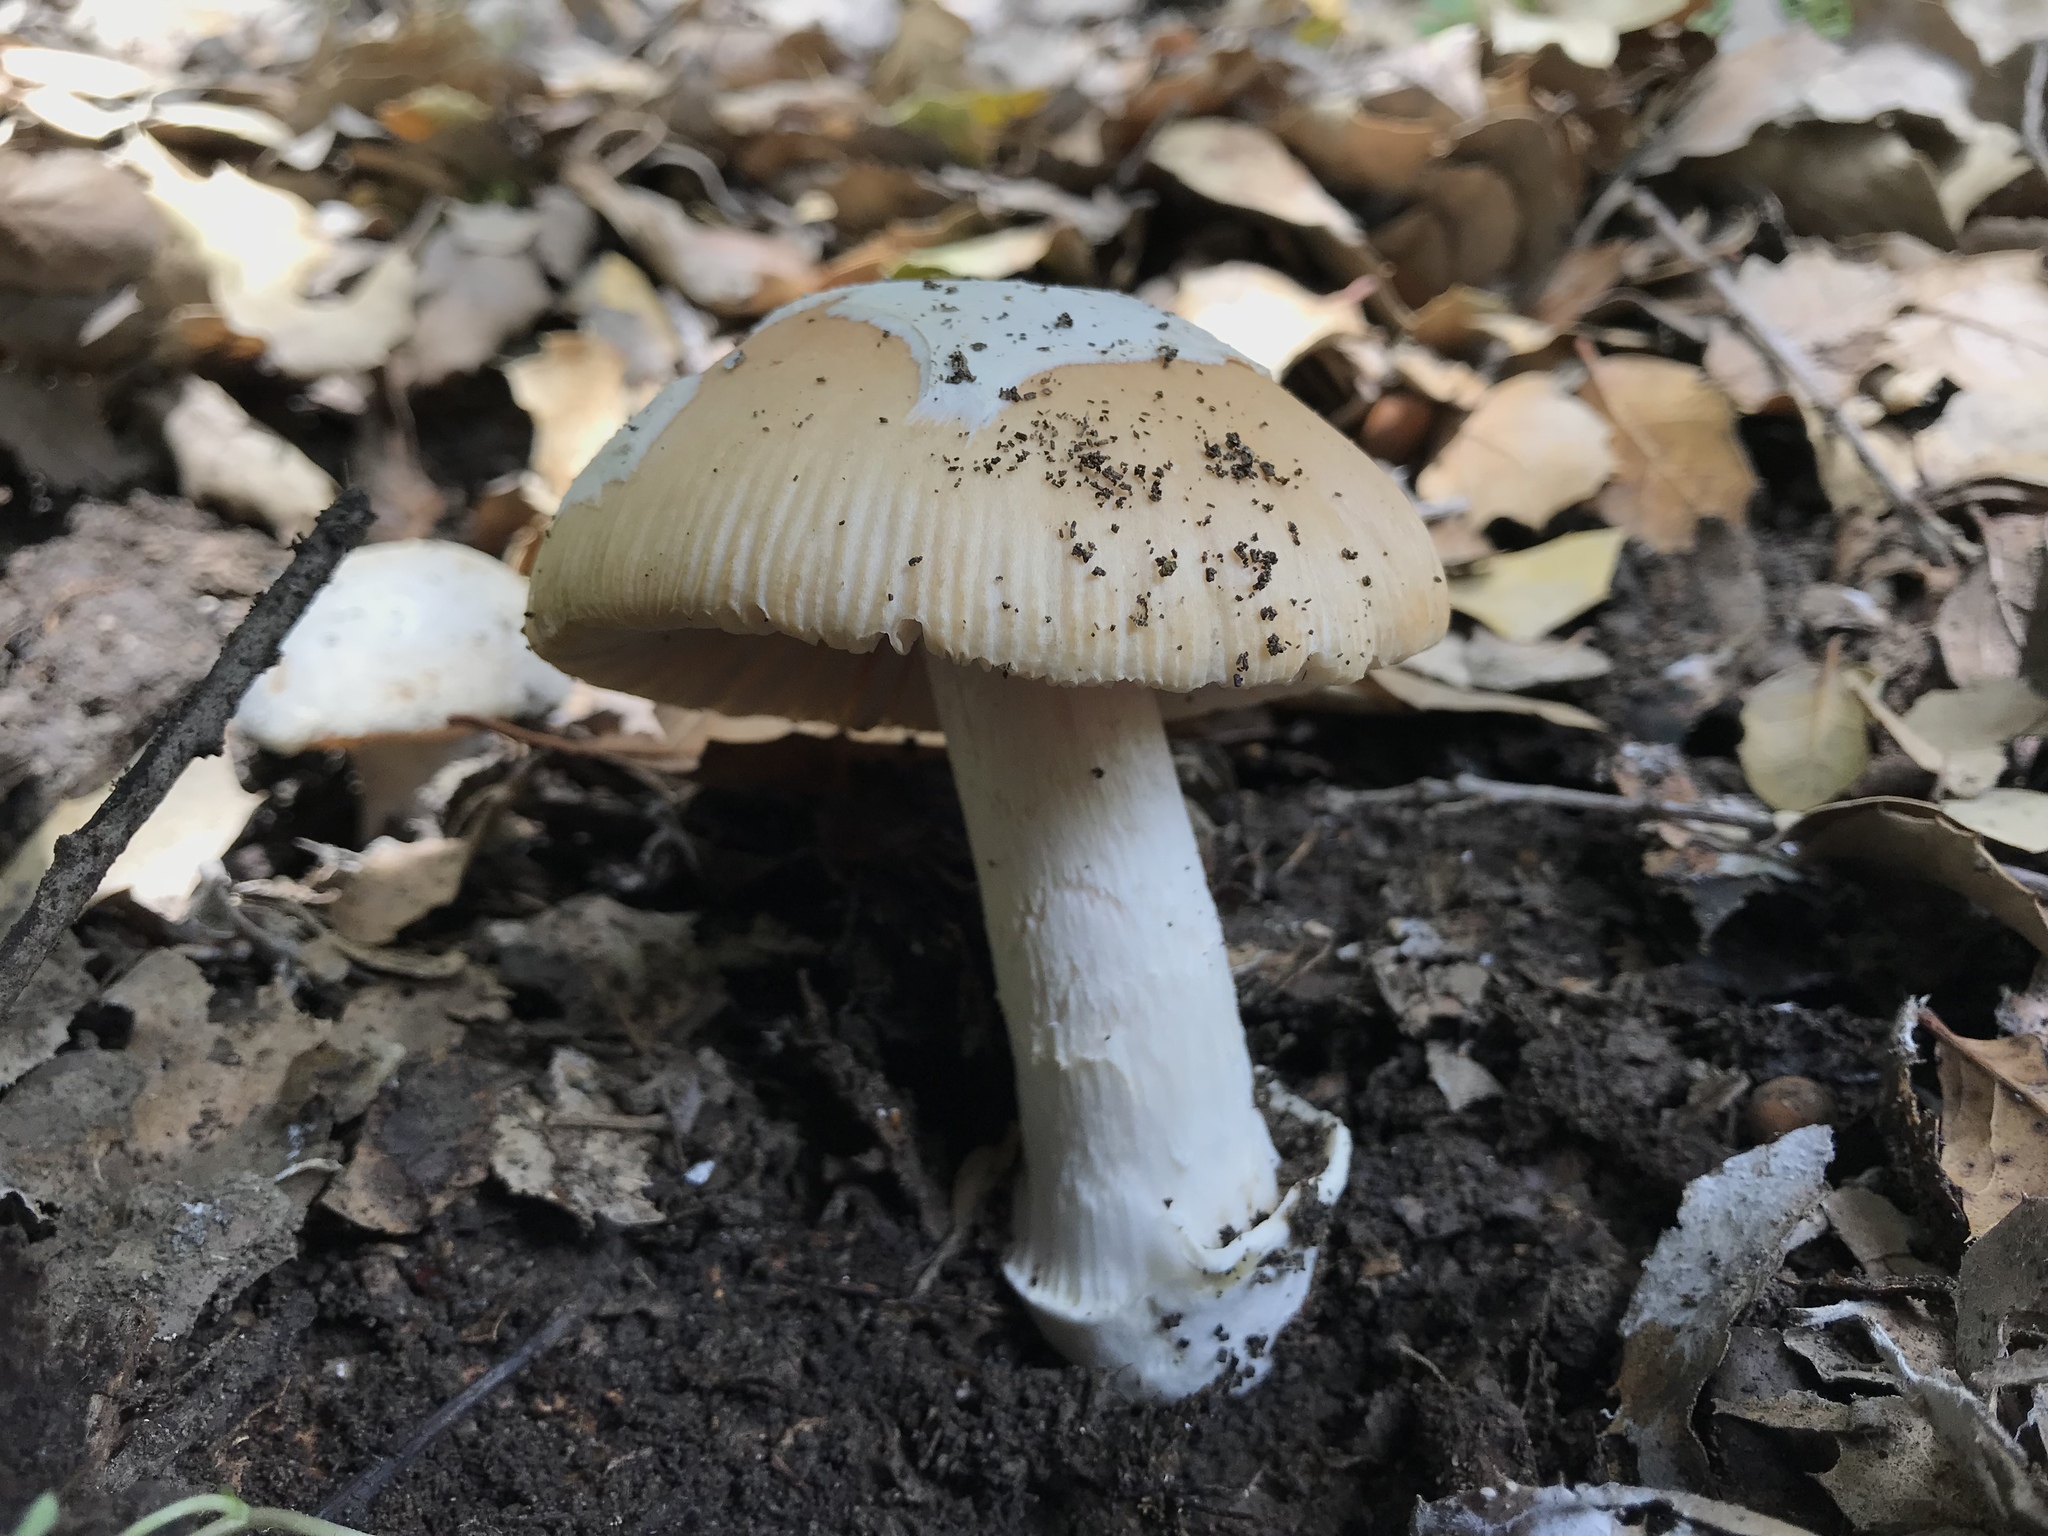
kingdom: Fungi
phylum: Basidiomycota
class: Agaricomycetes
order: Agaricales
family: Amanitaceae
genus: Amanita
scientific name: Amanita velosa
